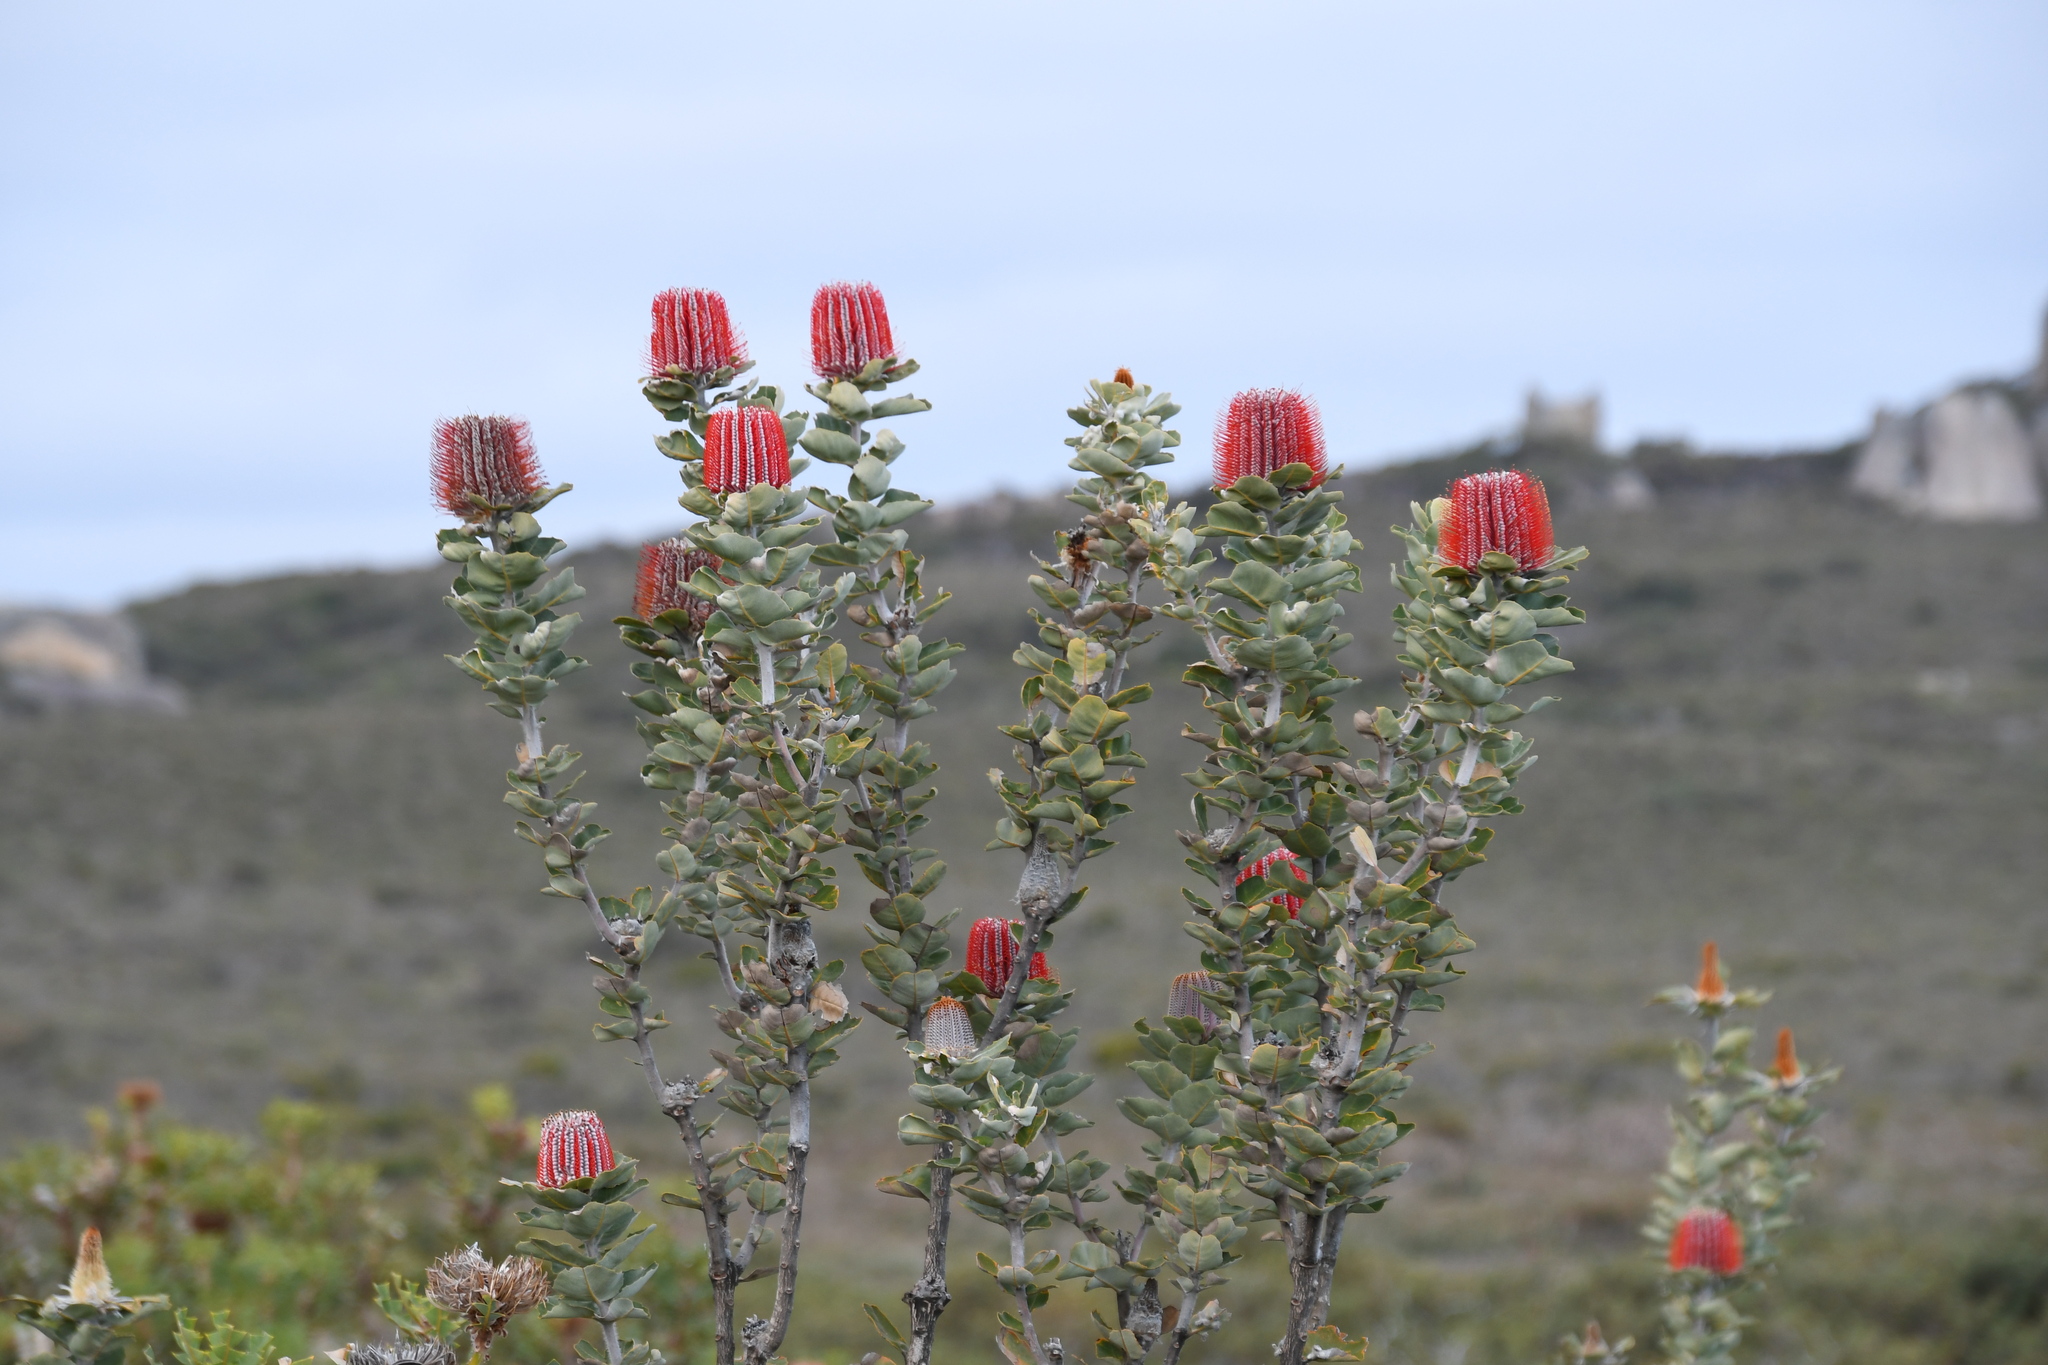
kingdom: Plantae
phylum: Tracheophyta
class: Magnoliopsida
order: Proteales
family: Proteaceae
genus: Banksia
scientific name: Banksia coccinea
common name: Scarlet banksia
